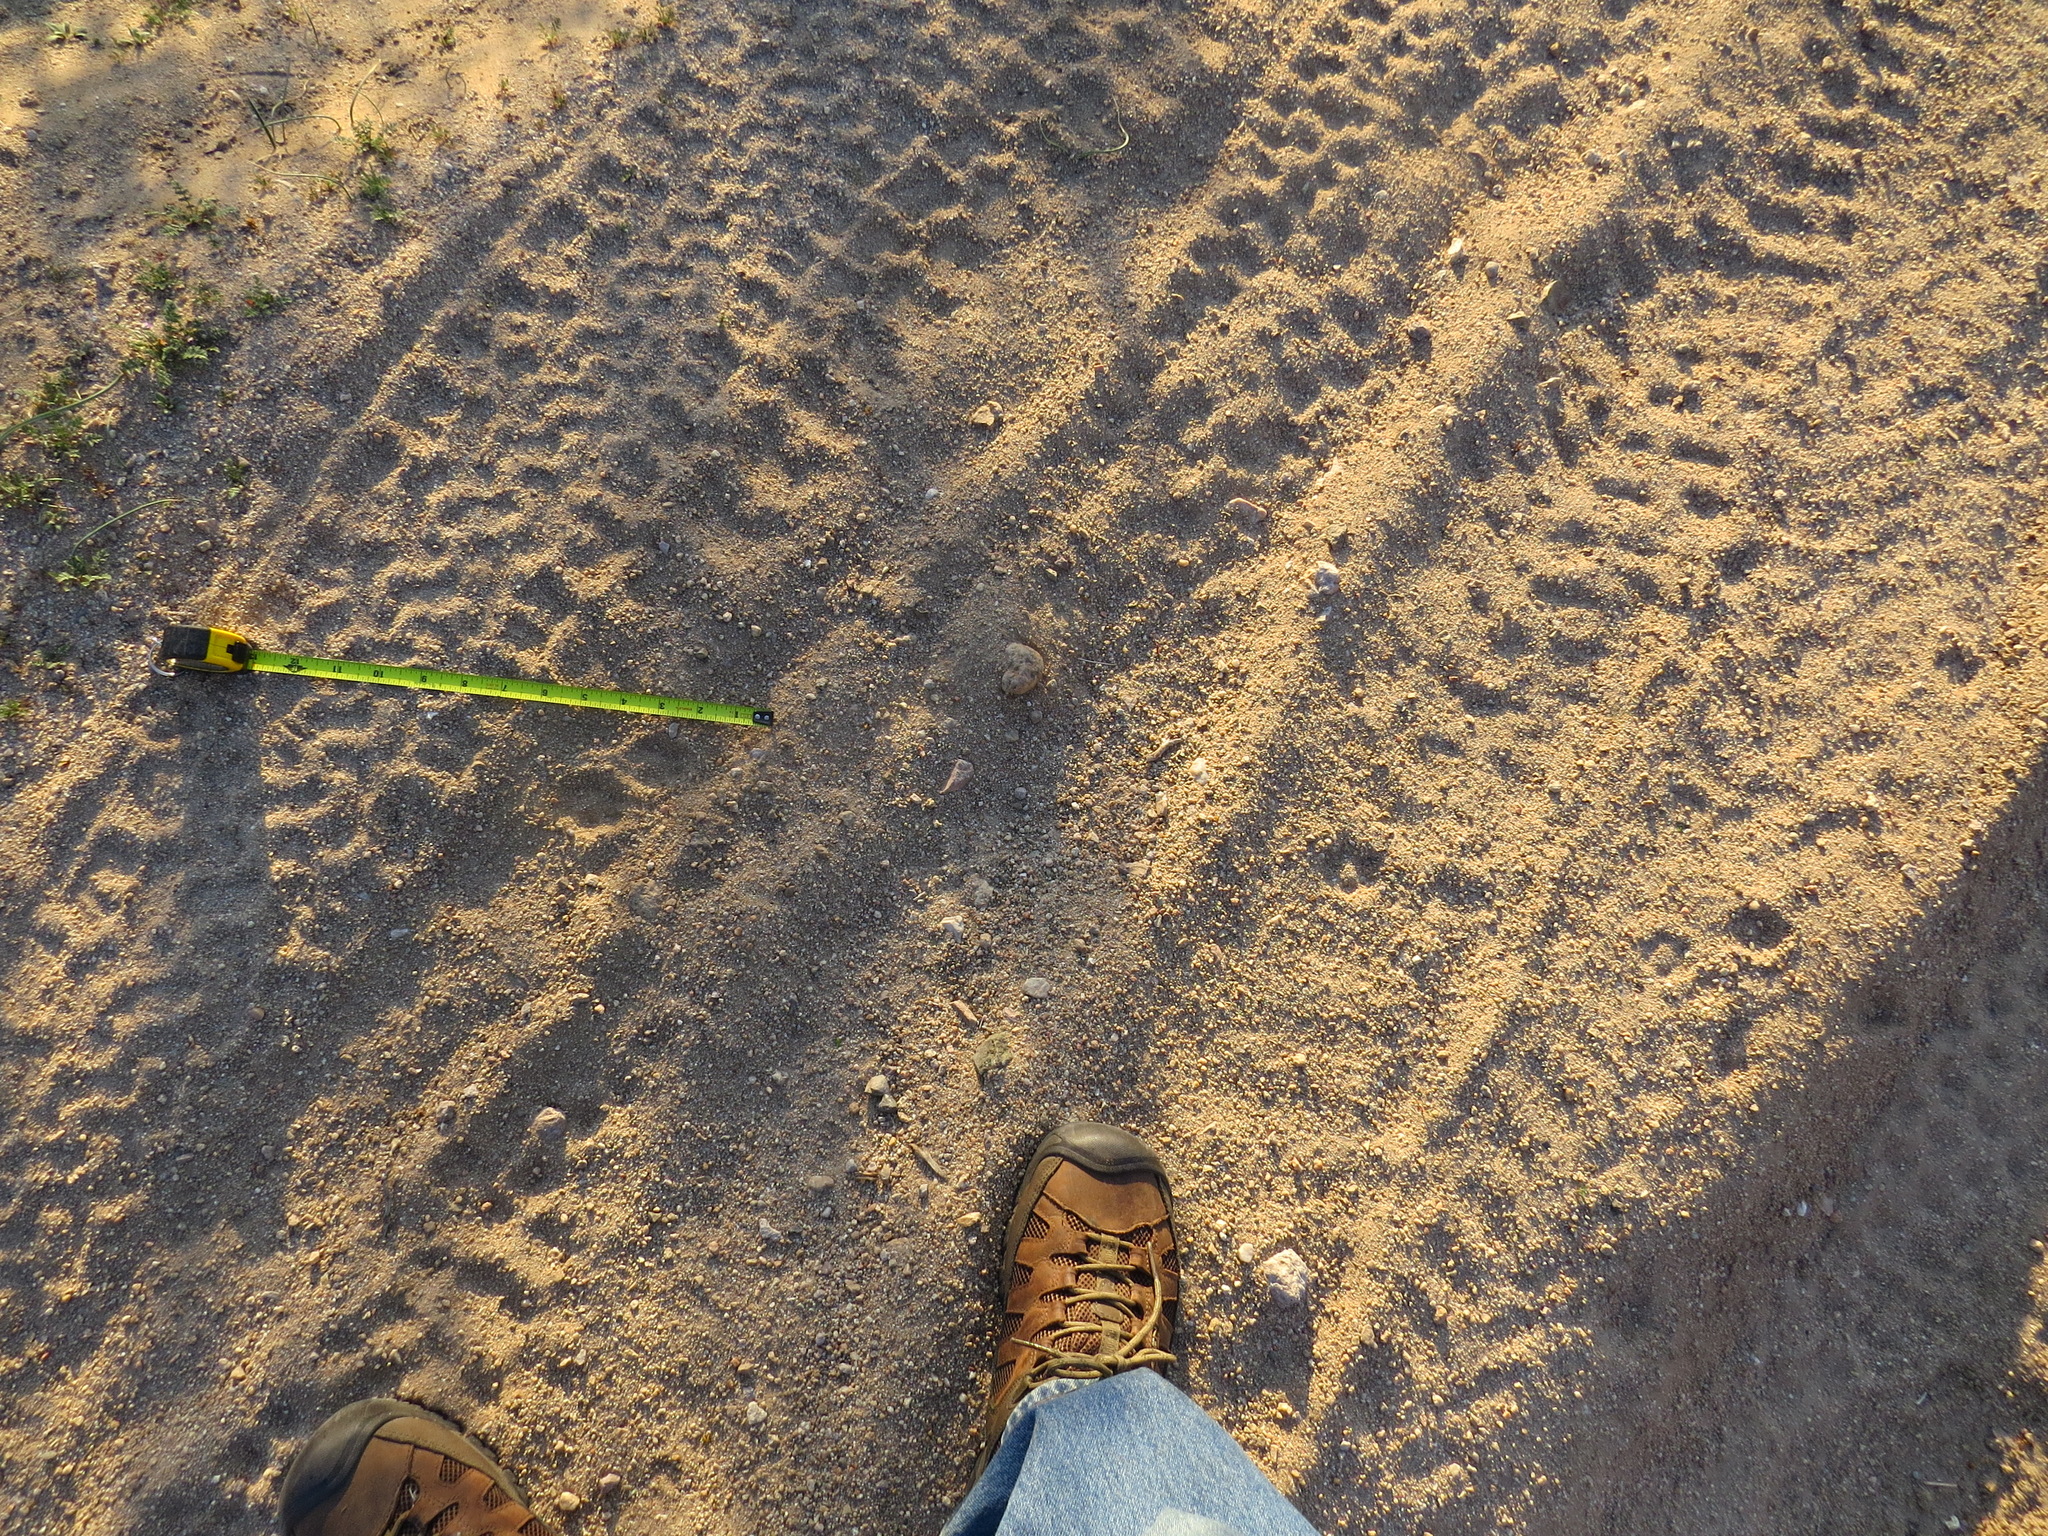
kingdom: Animalia
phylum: Chordata
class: Mammalia
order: Carnivora
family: Canidae
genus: Vulpes
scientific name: Vulpes macrotis
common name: Kit fox
